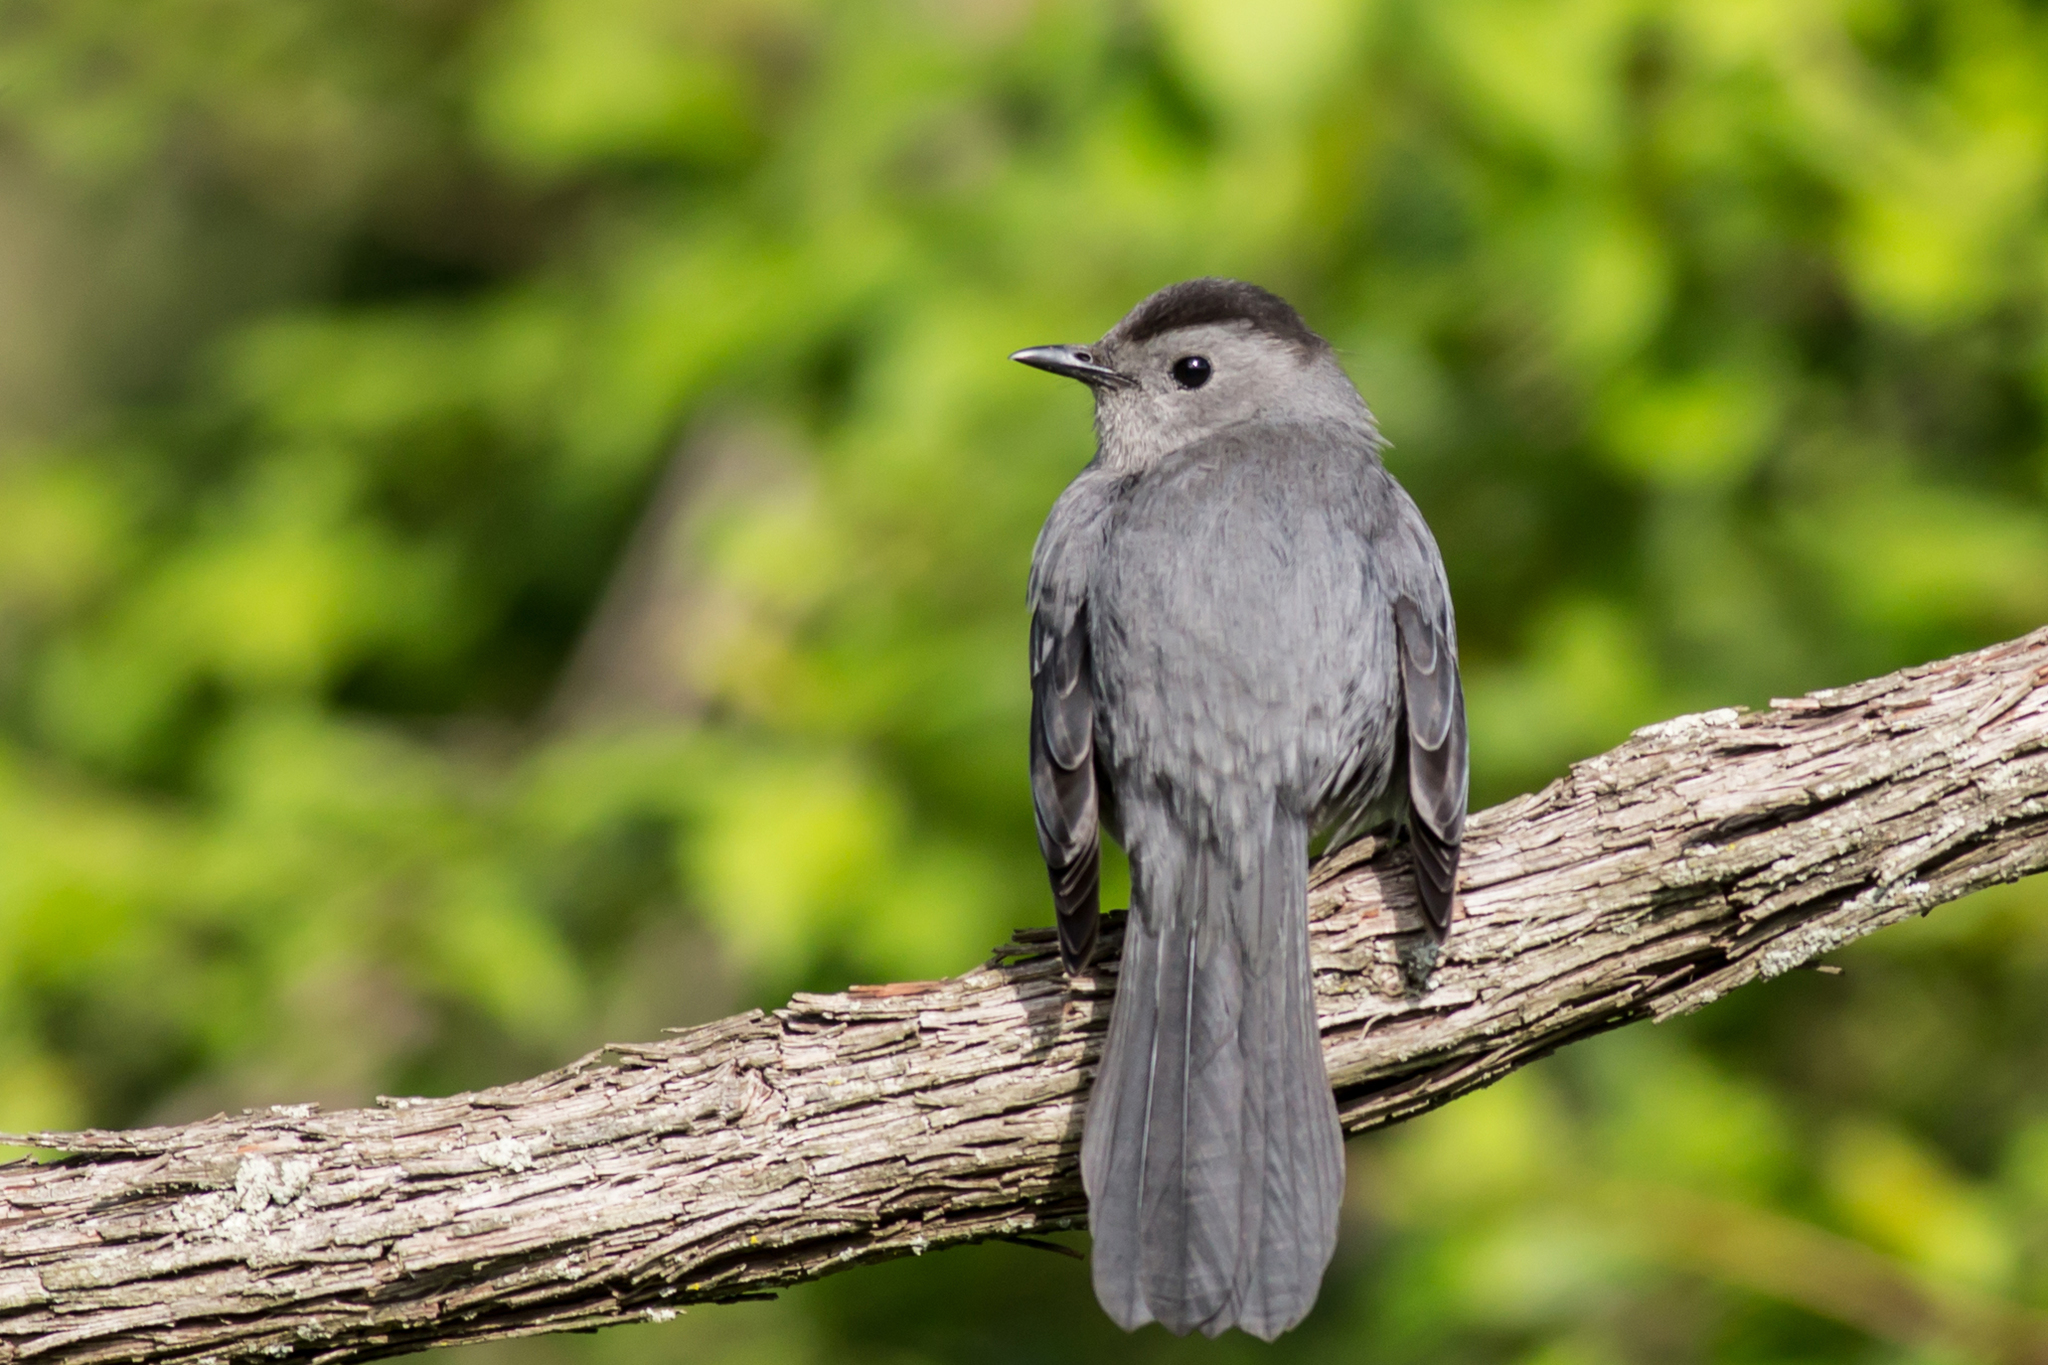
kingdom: Animalia
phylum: Chordata
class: Aves
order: Passeriformes
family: Mimidae
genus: Dumetella
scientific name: Dumetella carolinensis
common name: Gray catbird
